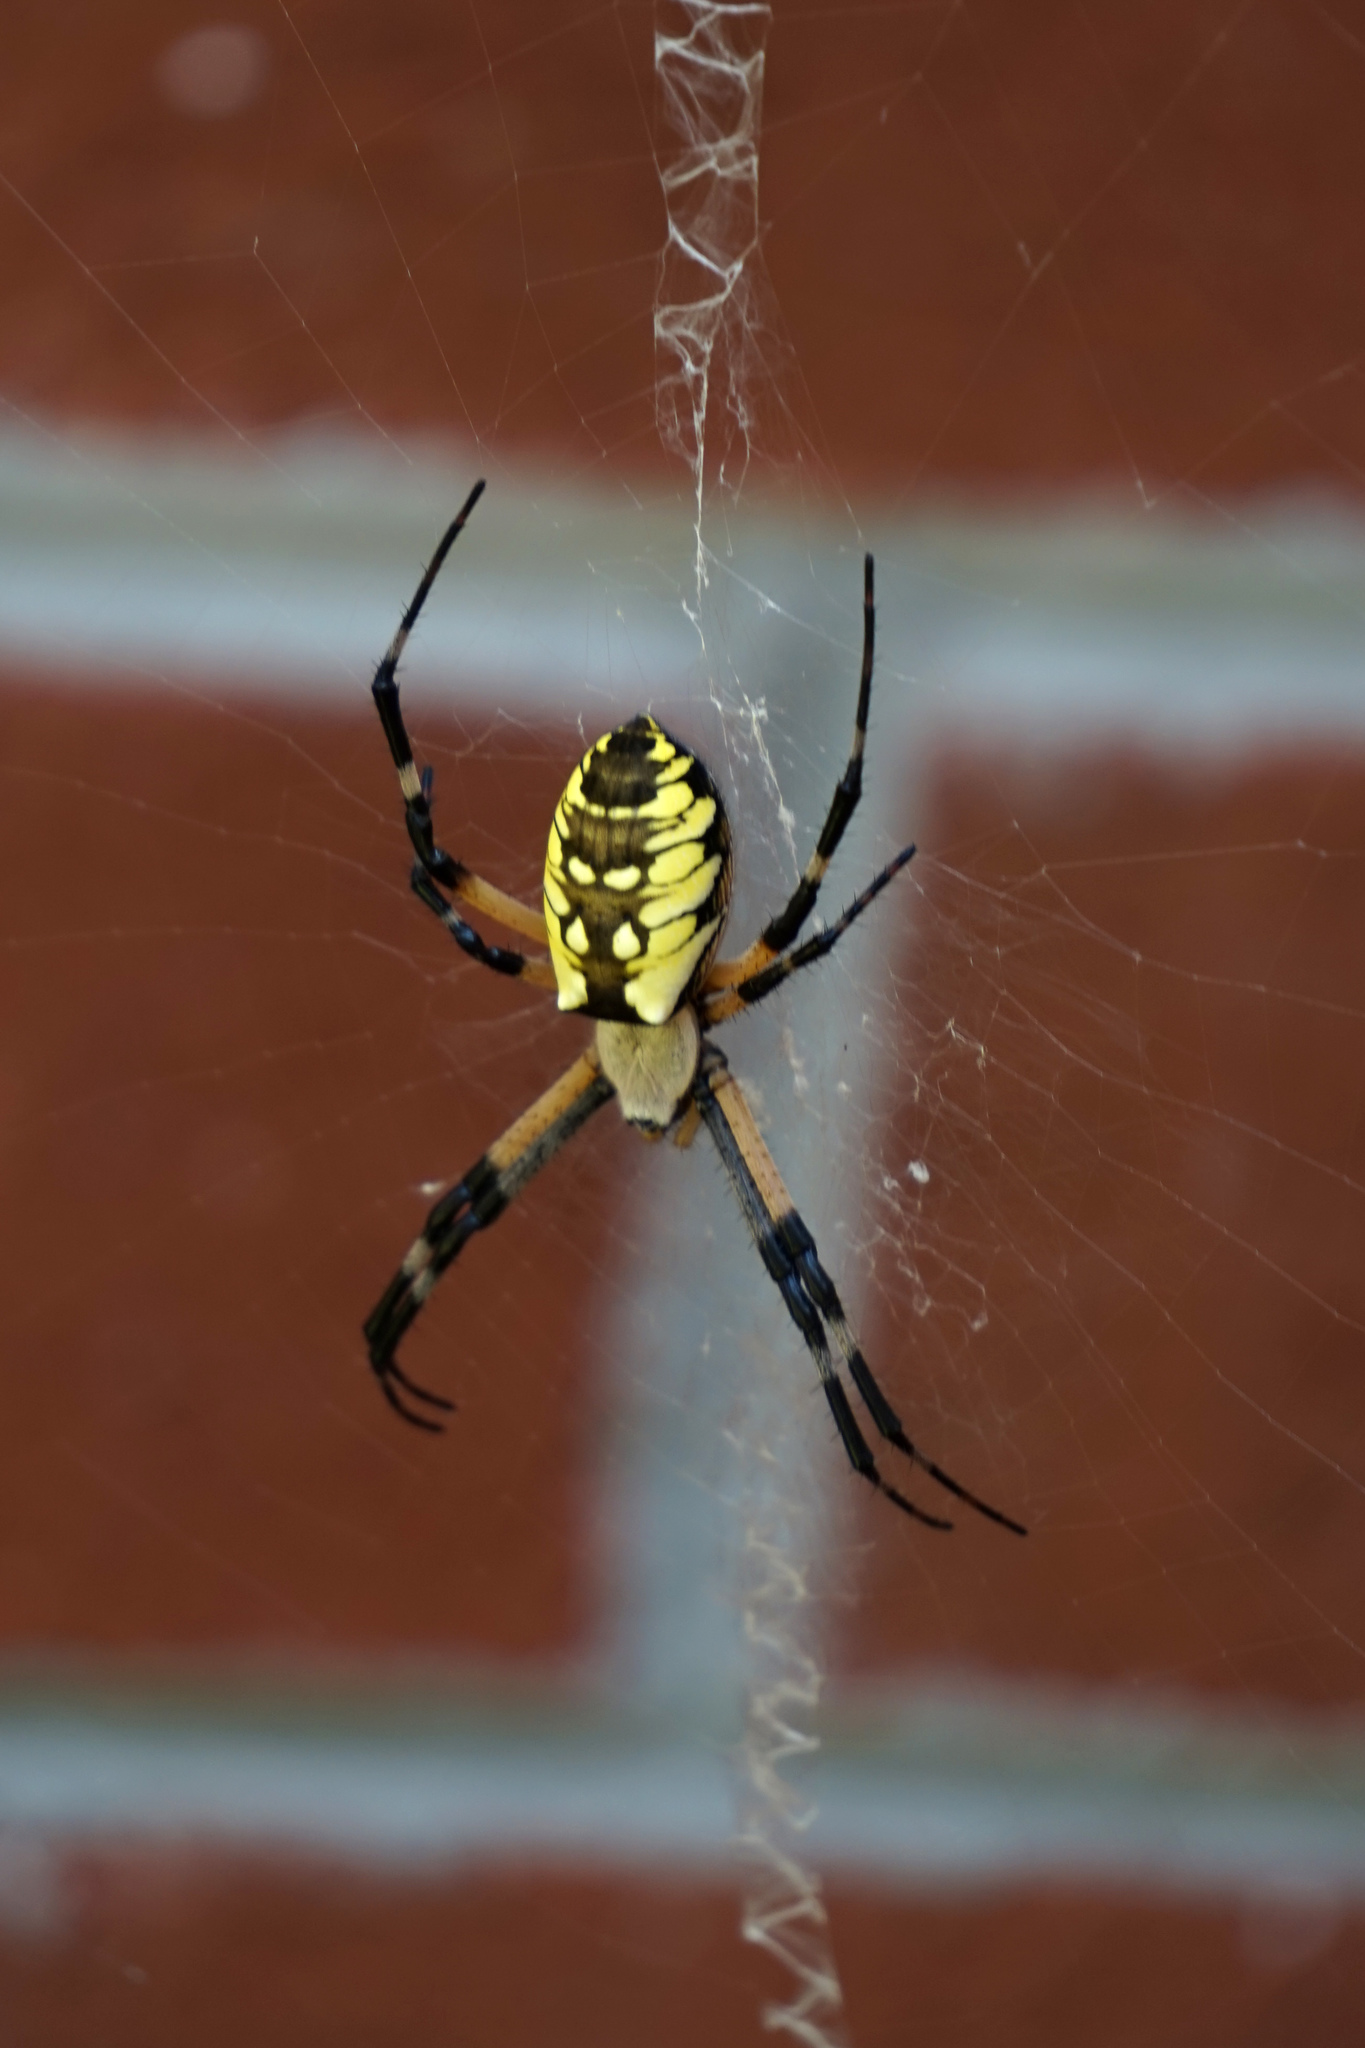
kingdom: Animalia
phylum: Arthropoda
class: Arachnida
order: Araneae
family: Araneidae
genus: Argiope
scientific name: Argiope aurantia
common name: Orb weavers
